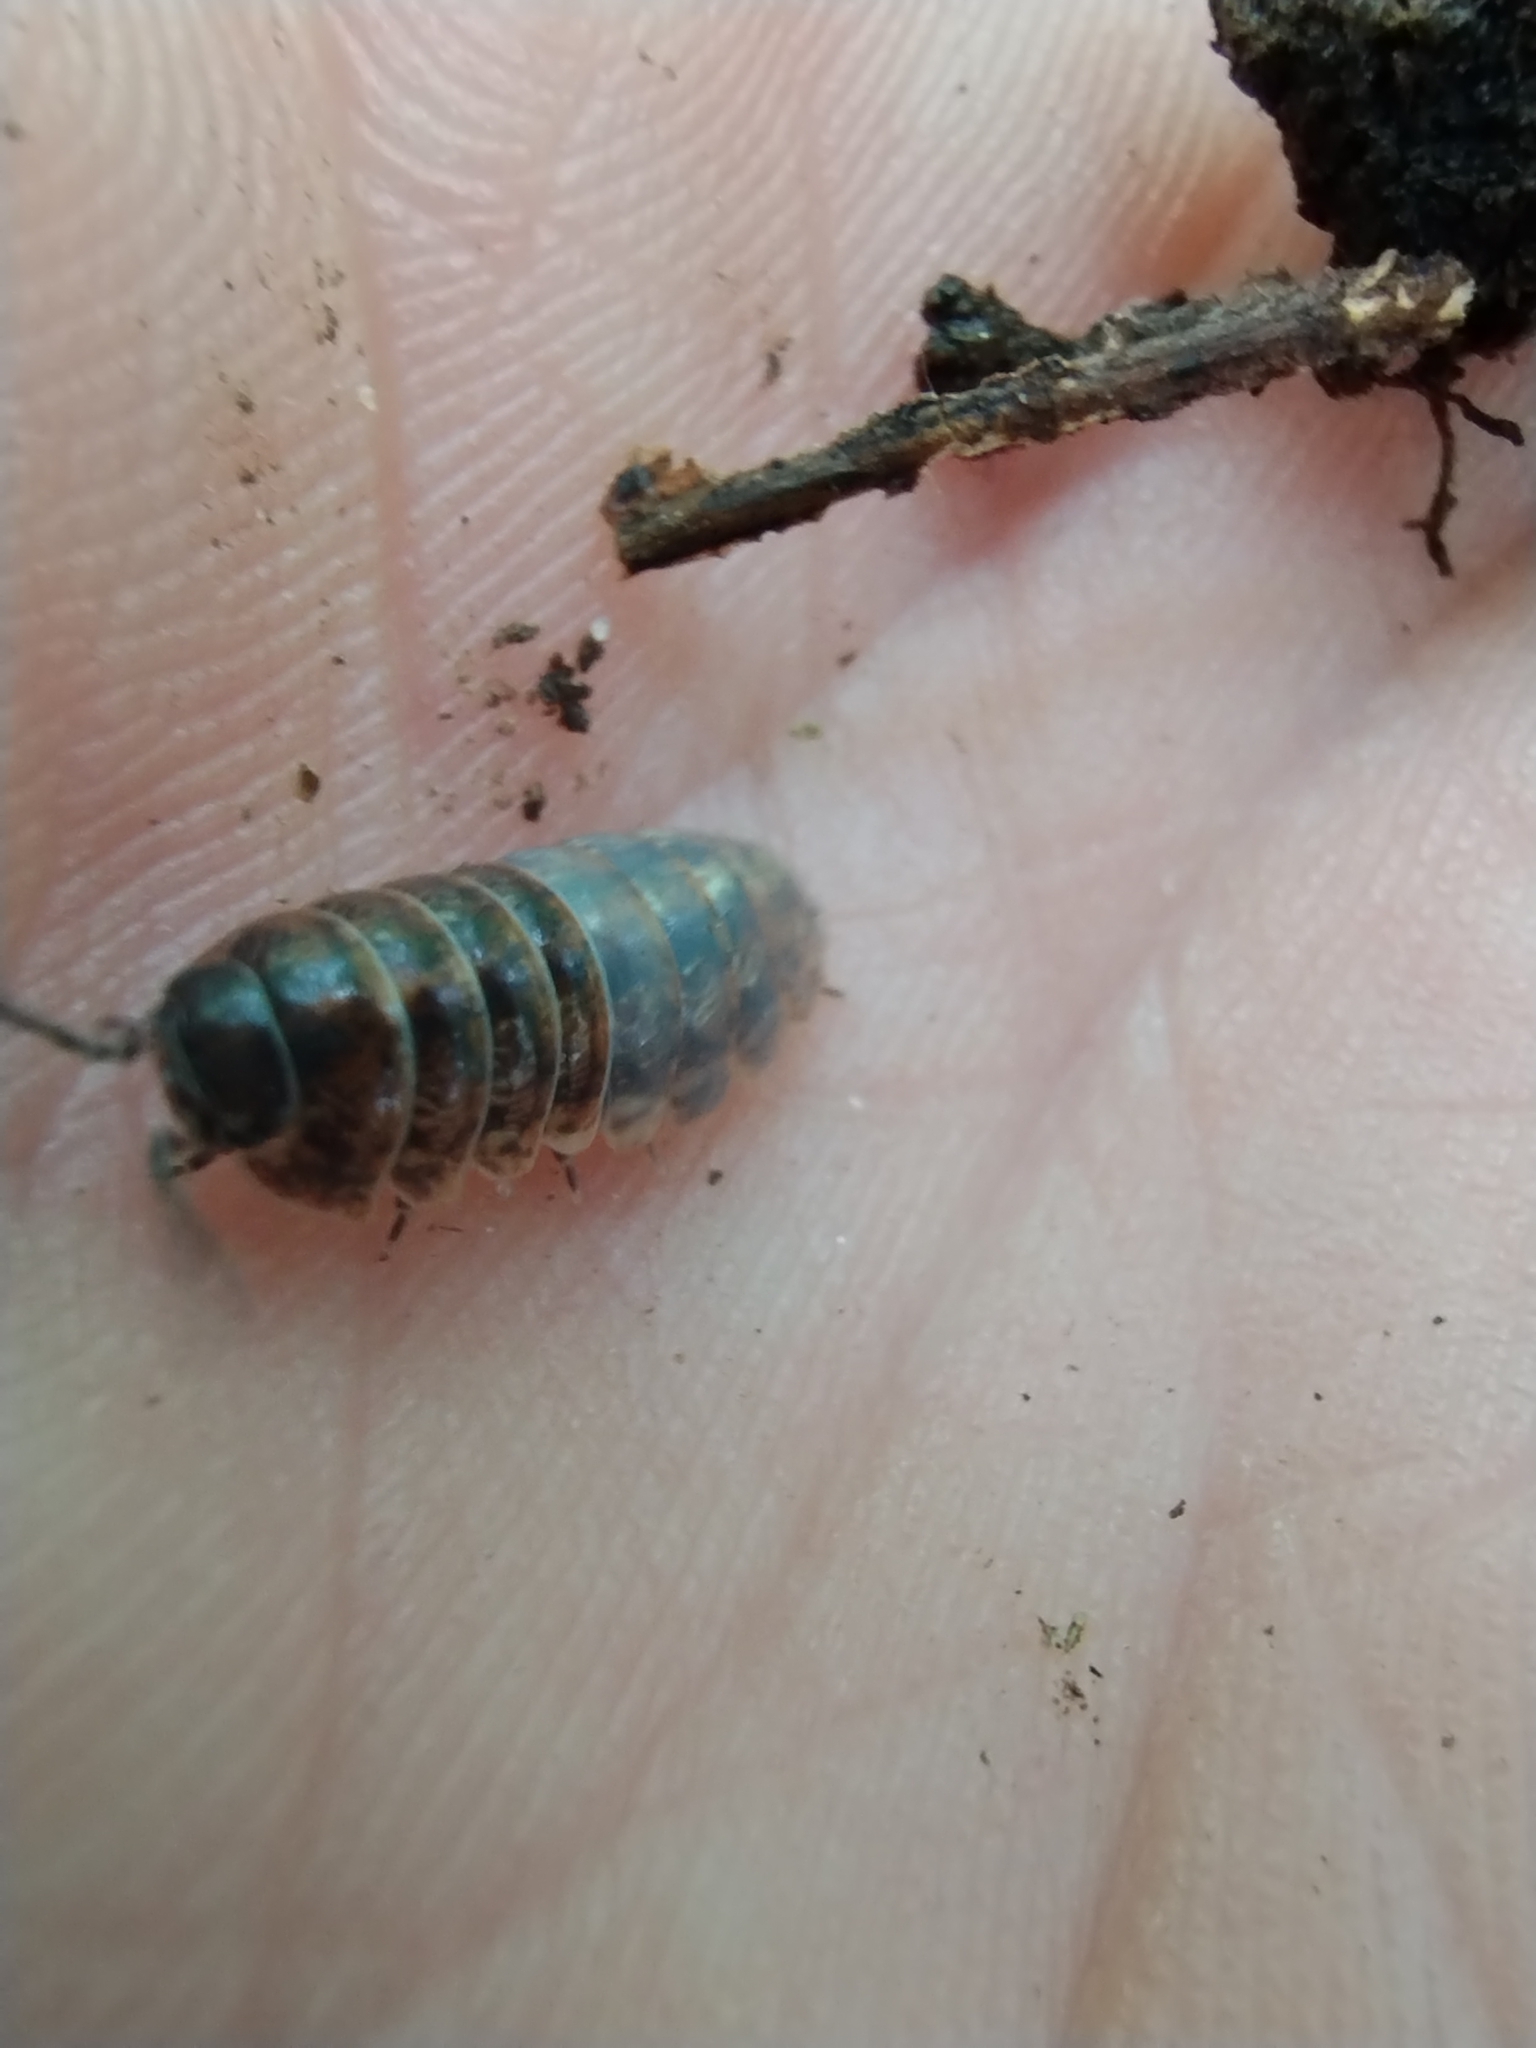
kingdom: Animalia
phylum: Arthropoda
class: Malacostraca
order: Isopoda
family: Armadillidiidae
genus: Armadillidium
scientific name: Armadillidium vulgare
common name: Common pill woodlouse
